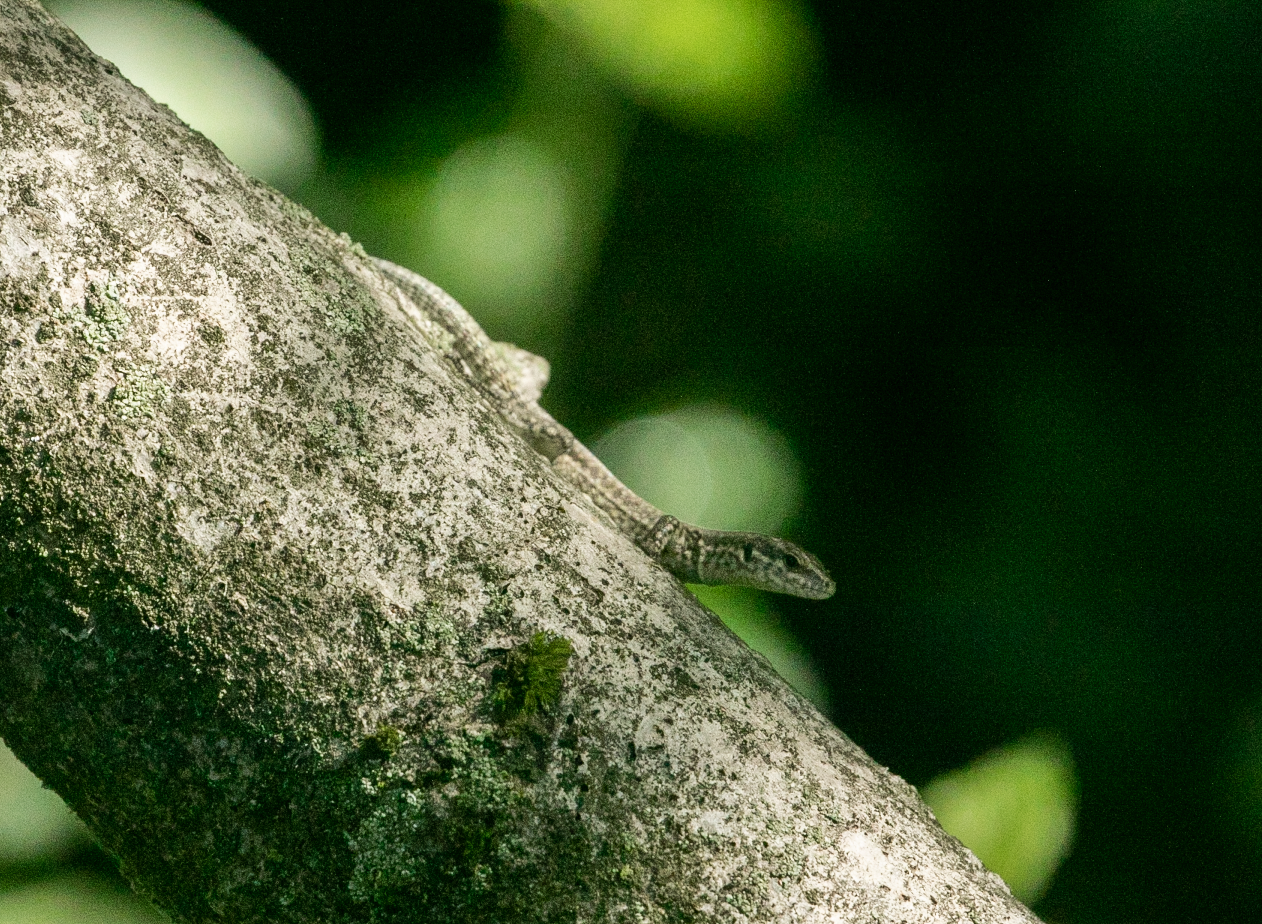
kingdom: Animalia
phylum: Chordata
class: Squamata
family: Lacertidae
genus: Podarcis
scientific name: Podarcis muralis
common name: Common wall lizard
